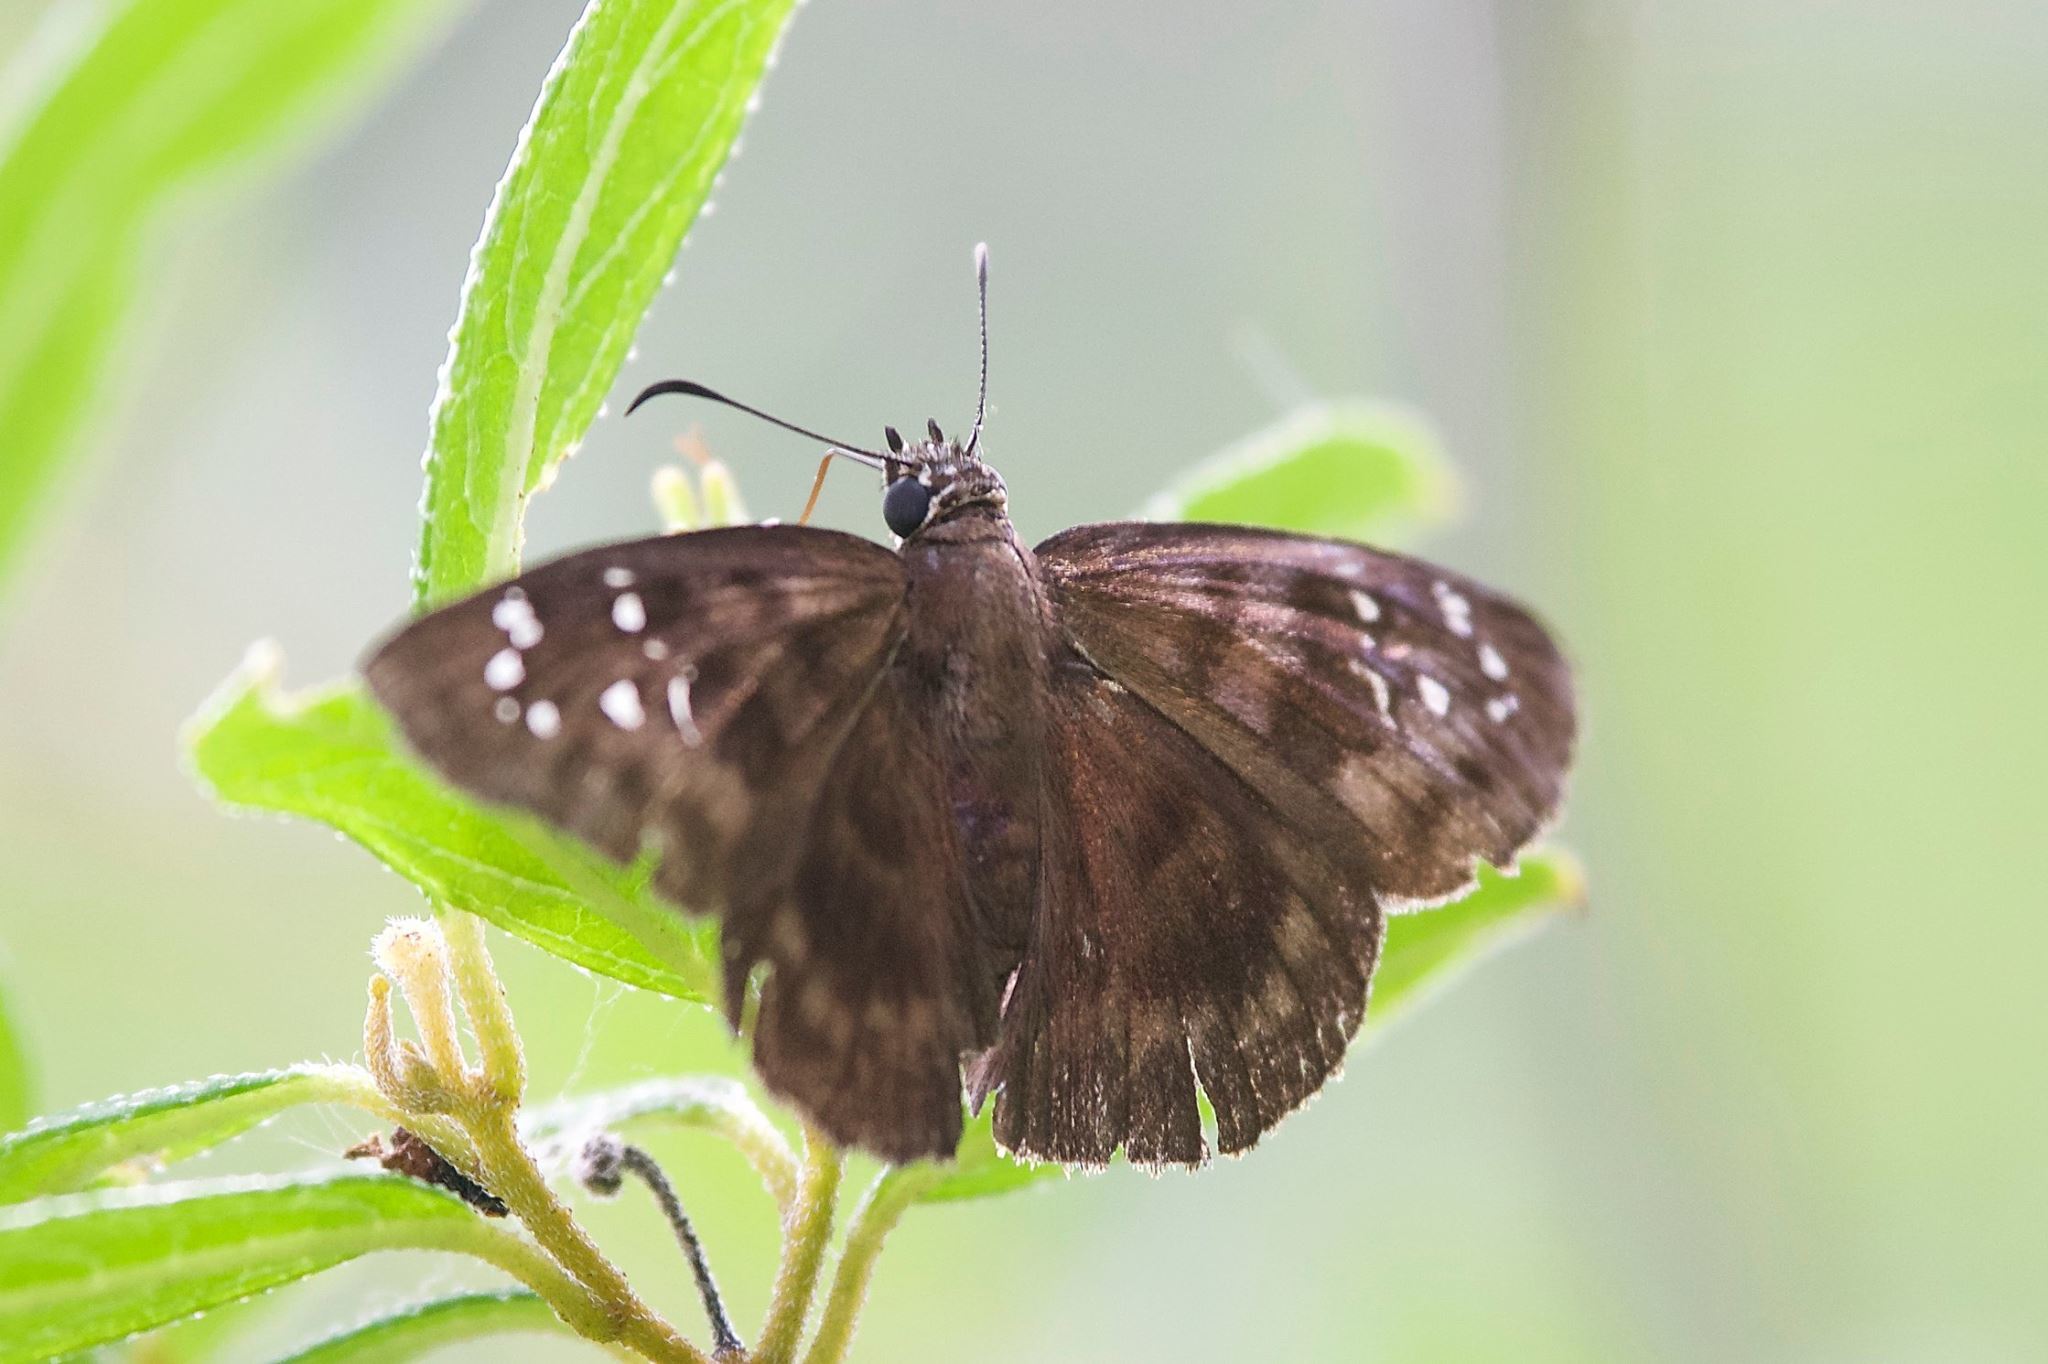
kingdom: Animalia
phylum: Arthropoda
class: Insecta
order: Lepidoptera
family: Hesperiidae
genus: Ephyriades
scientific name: Ephyriades brunnea
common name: Florida duskywing
